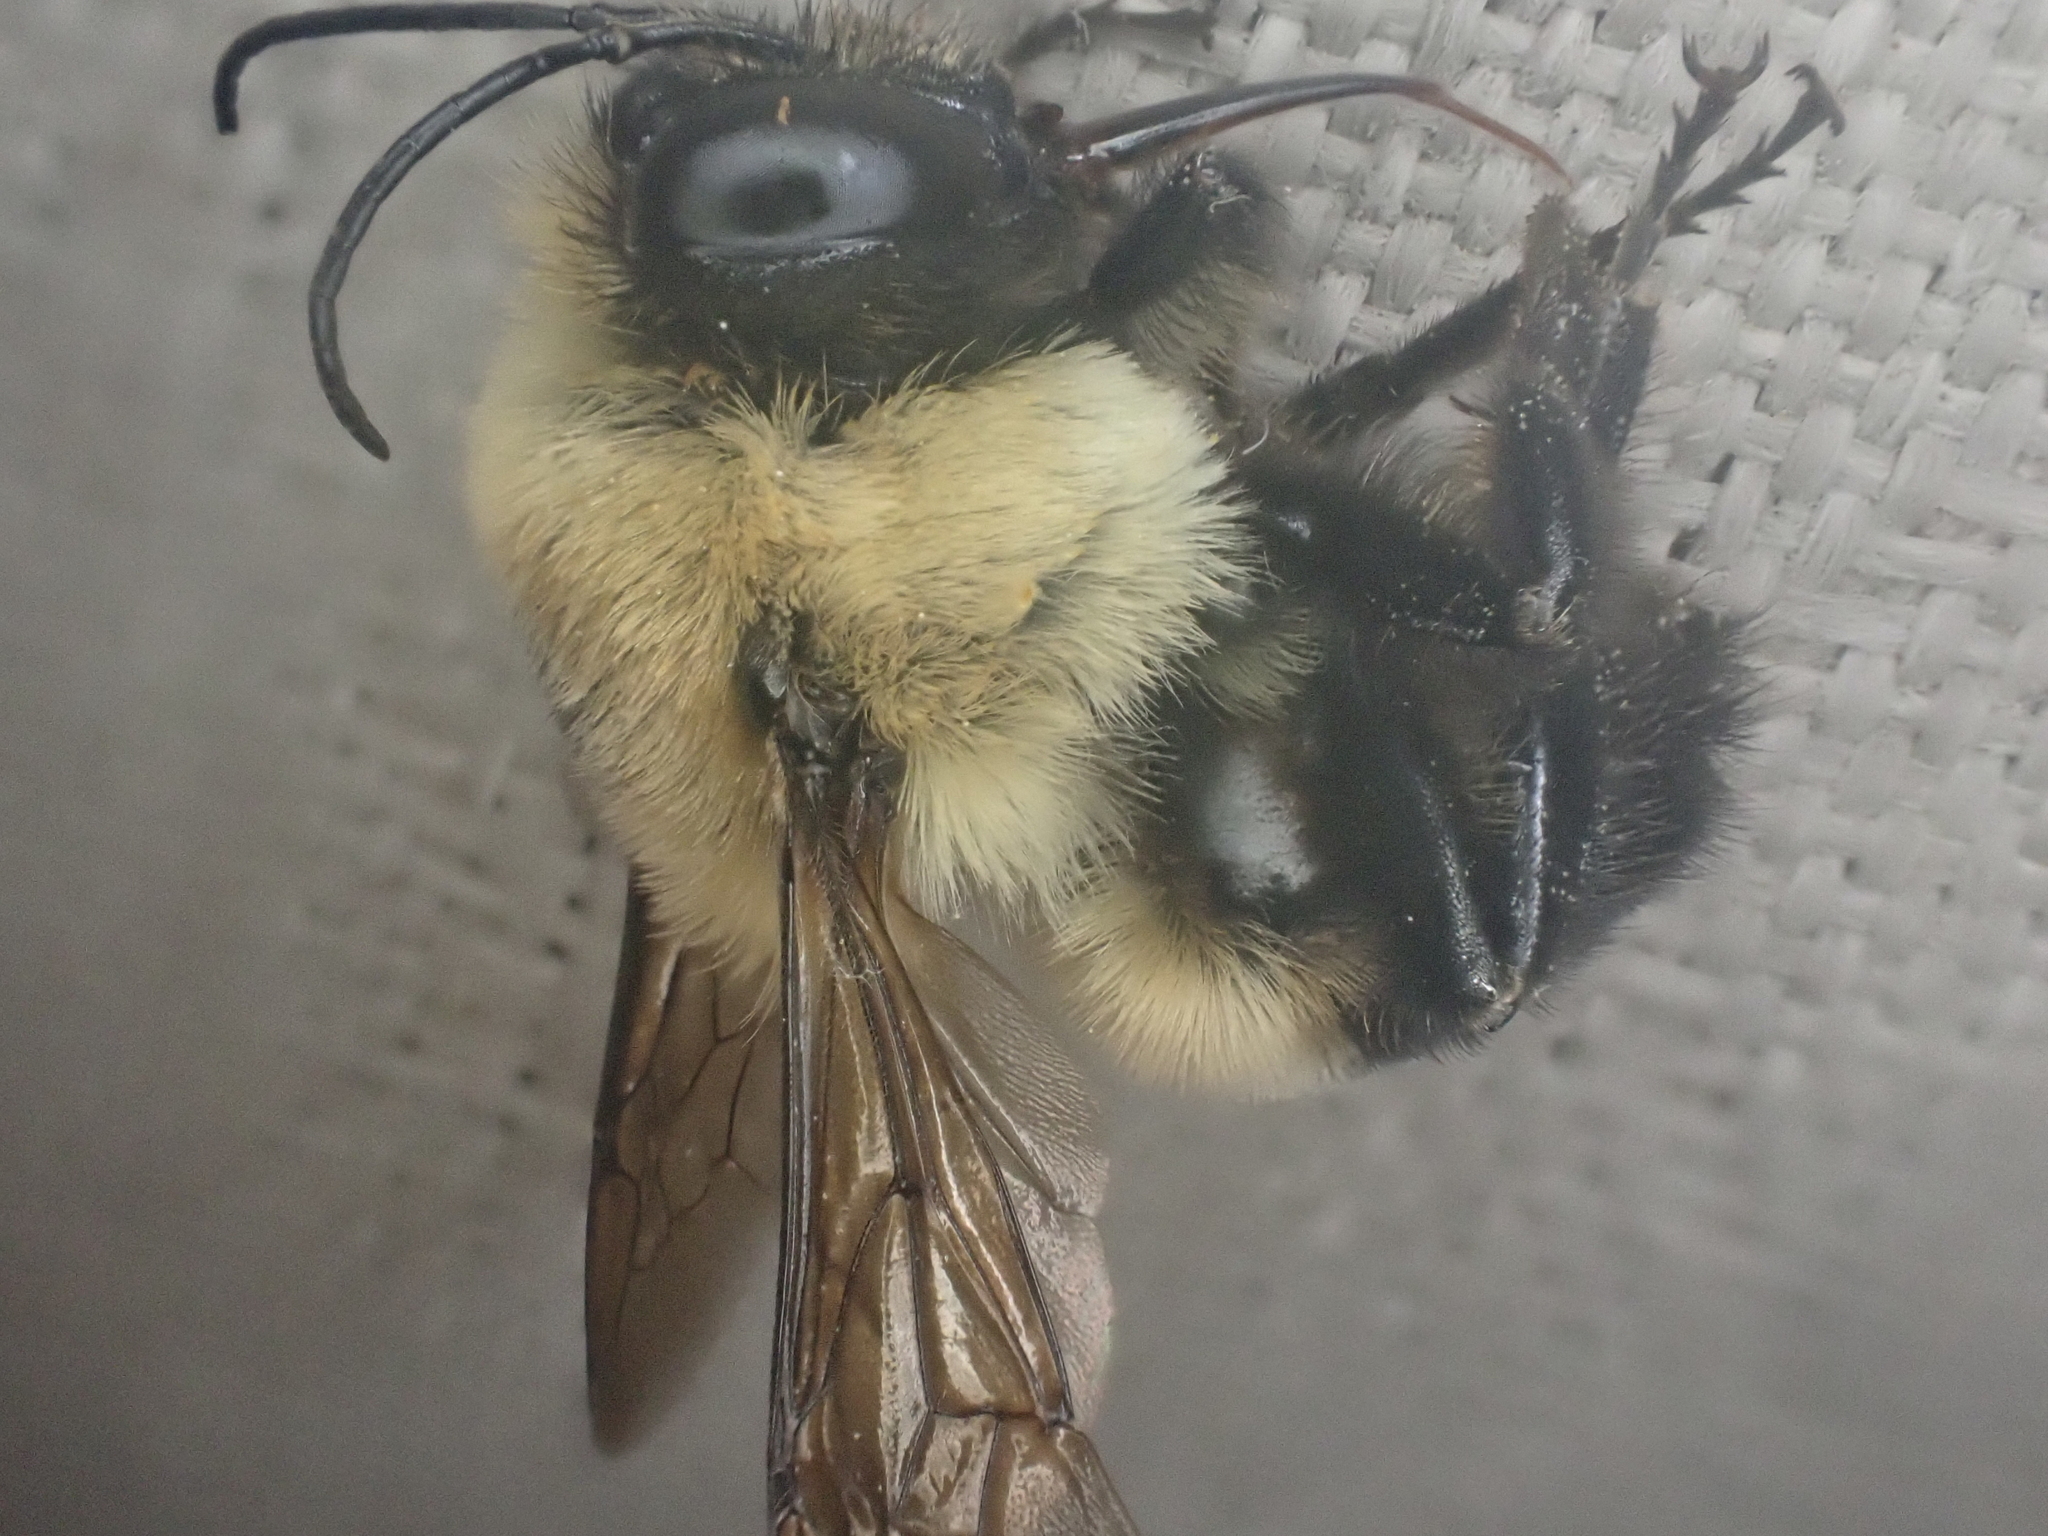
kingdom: Animalia
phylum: Arthropoda
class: Insecta
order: Hymenoptera
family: Apidae
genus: Bombus
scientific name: Bombus griseocollis
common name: Brown-belted bumble bee
